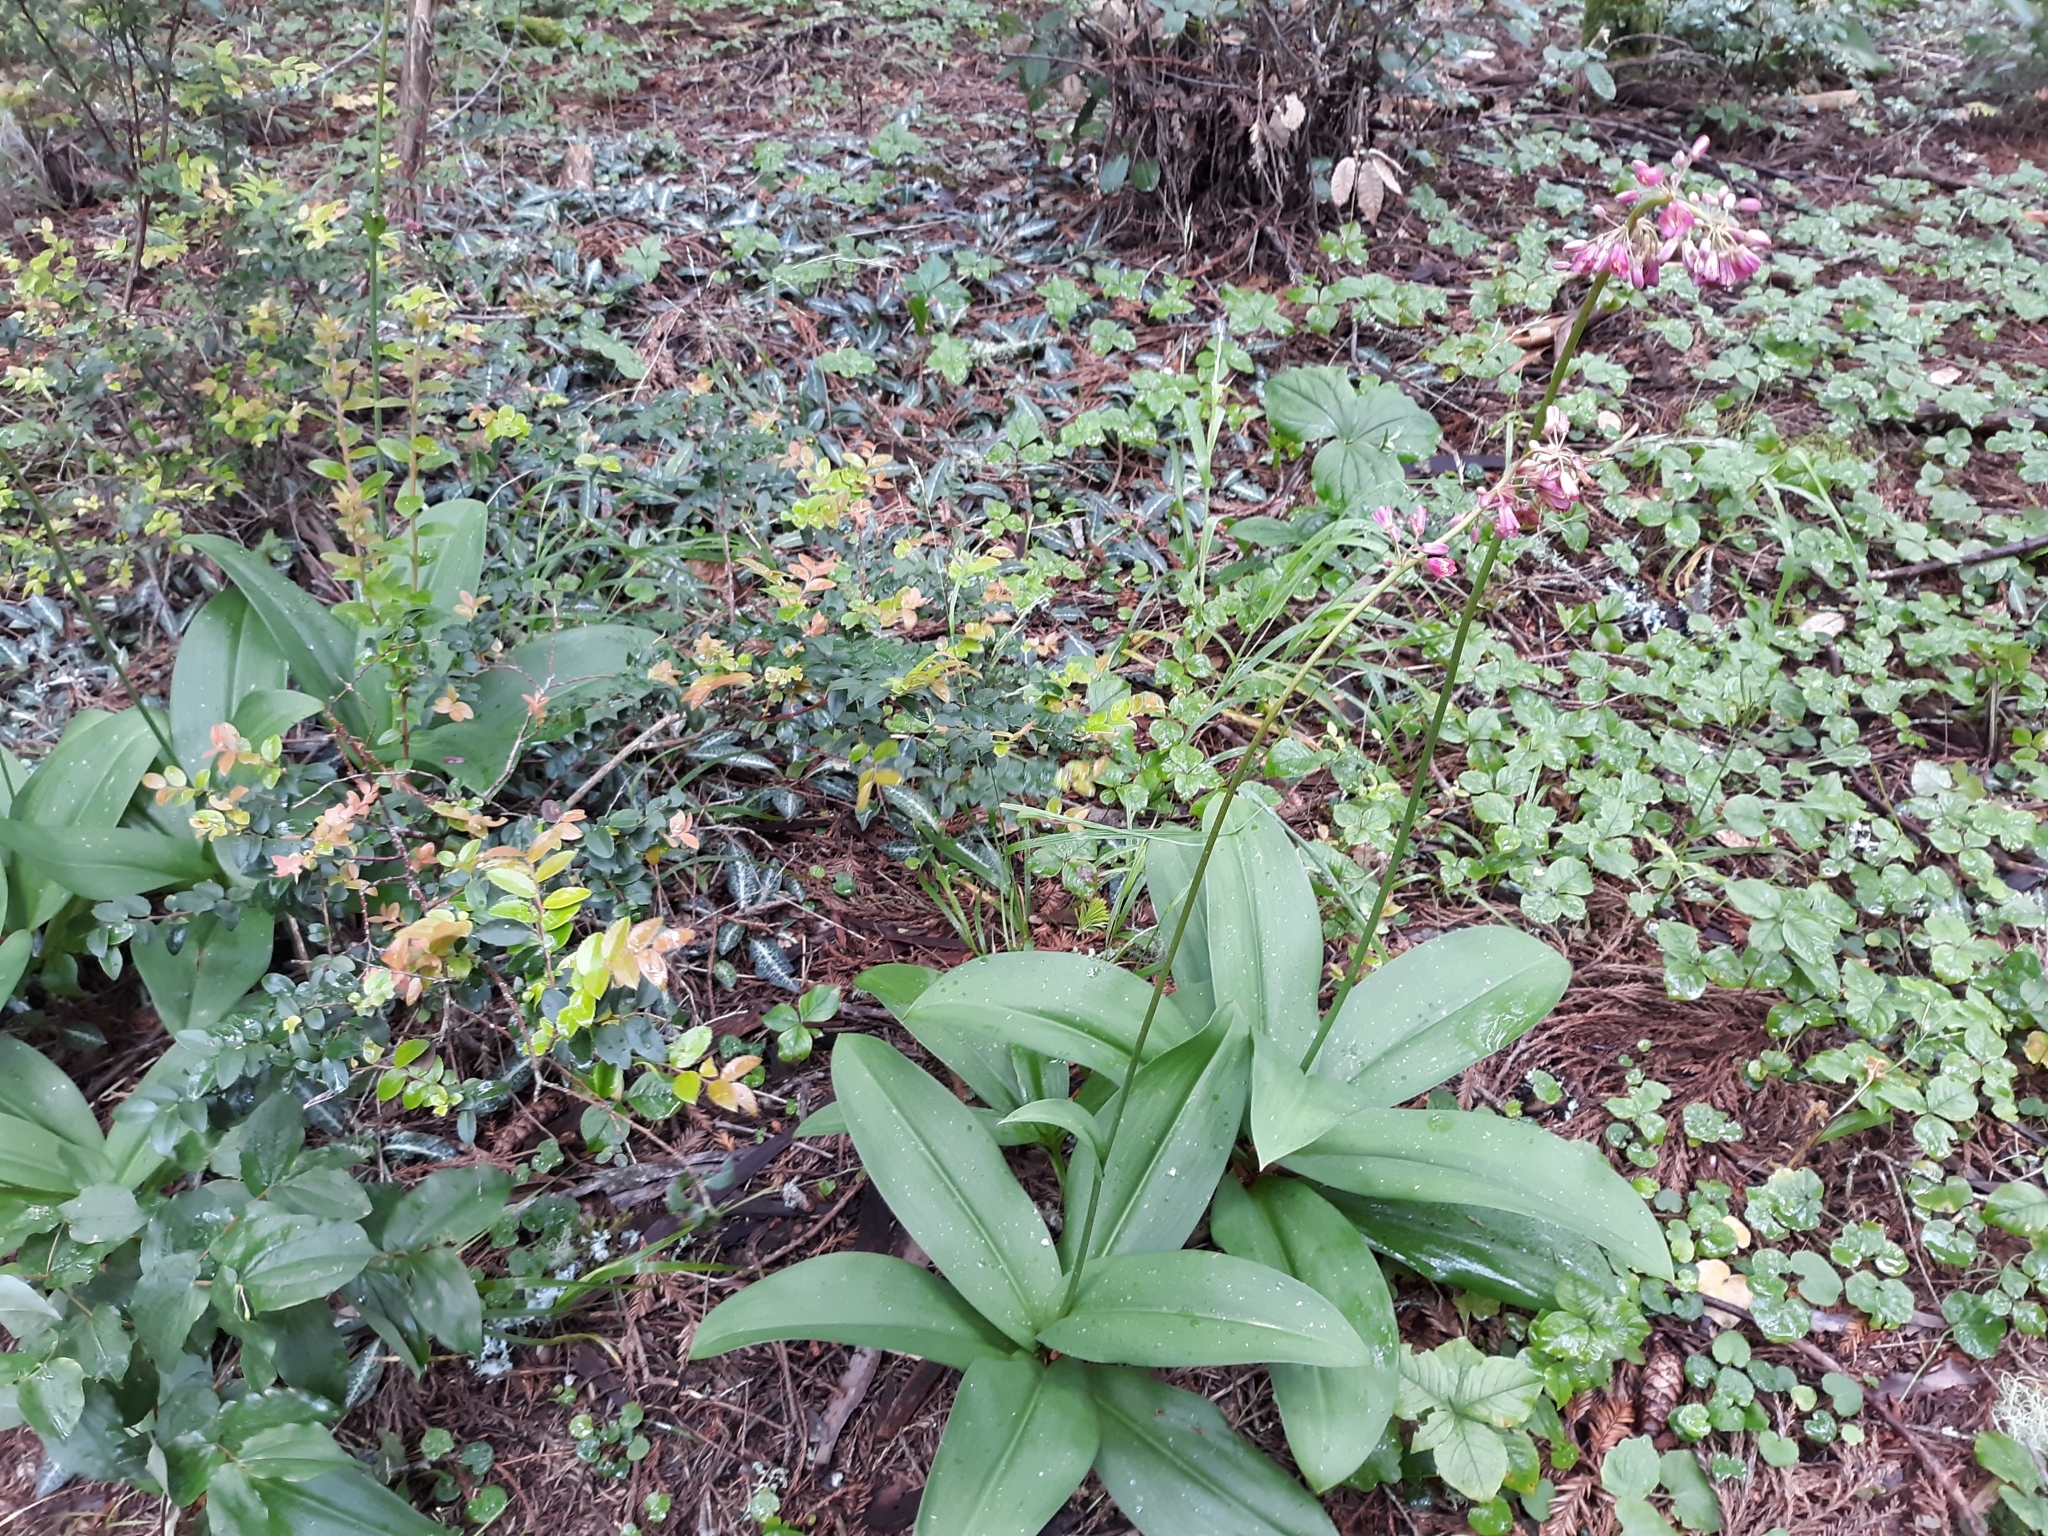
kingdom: Plantae
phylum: Tracheophyta
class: Liliopsida
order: Liliales
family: Liliaceae
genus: Clintonia
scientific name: Clintonia andrewsiana
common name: Red clintonia
